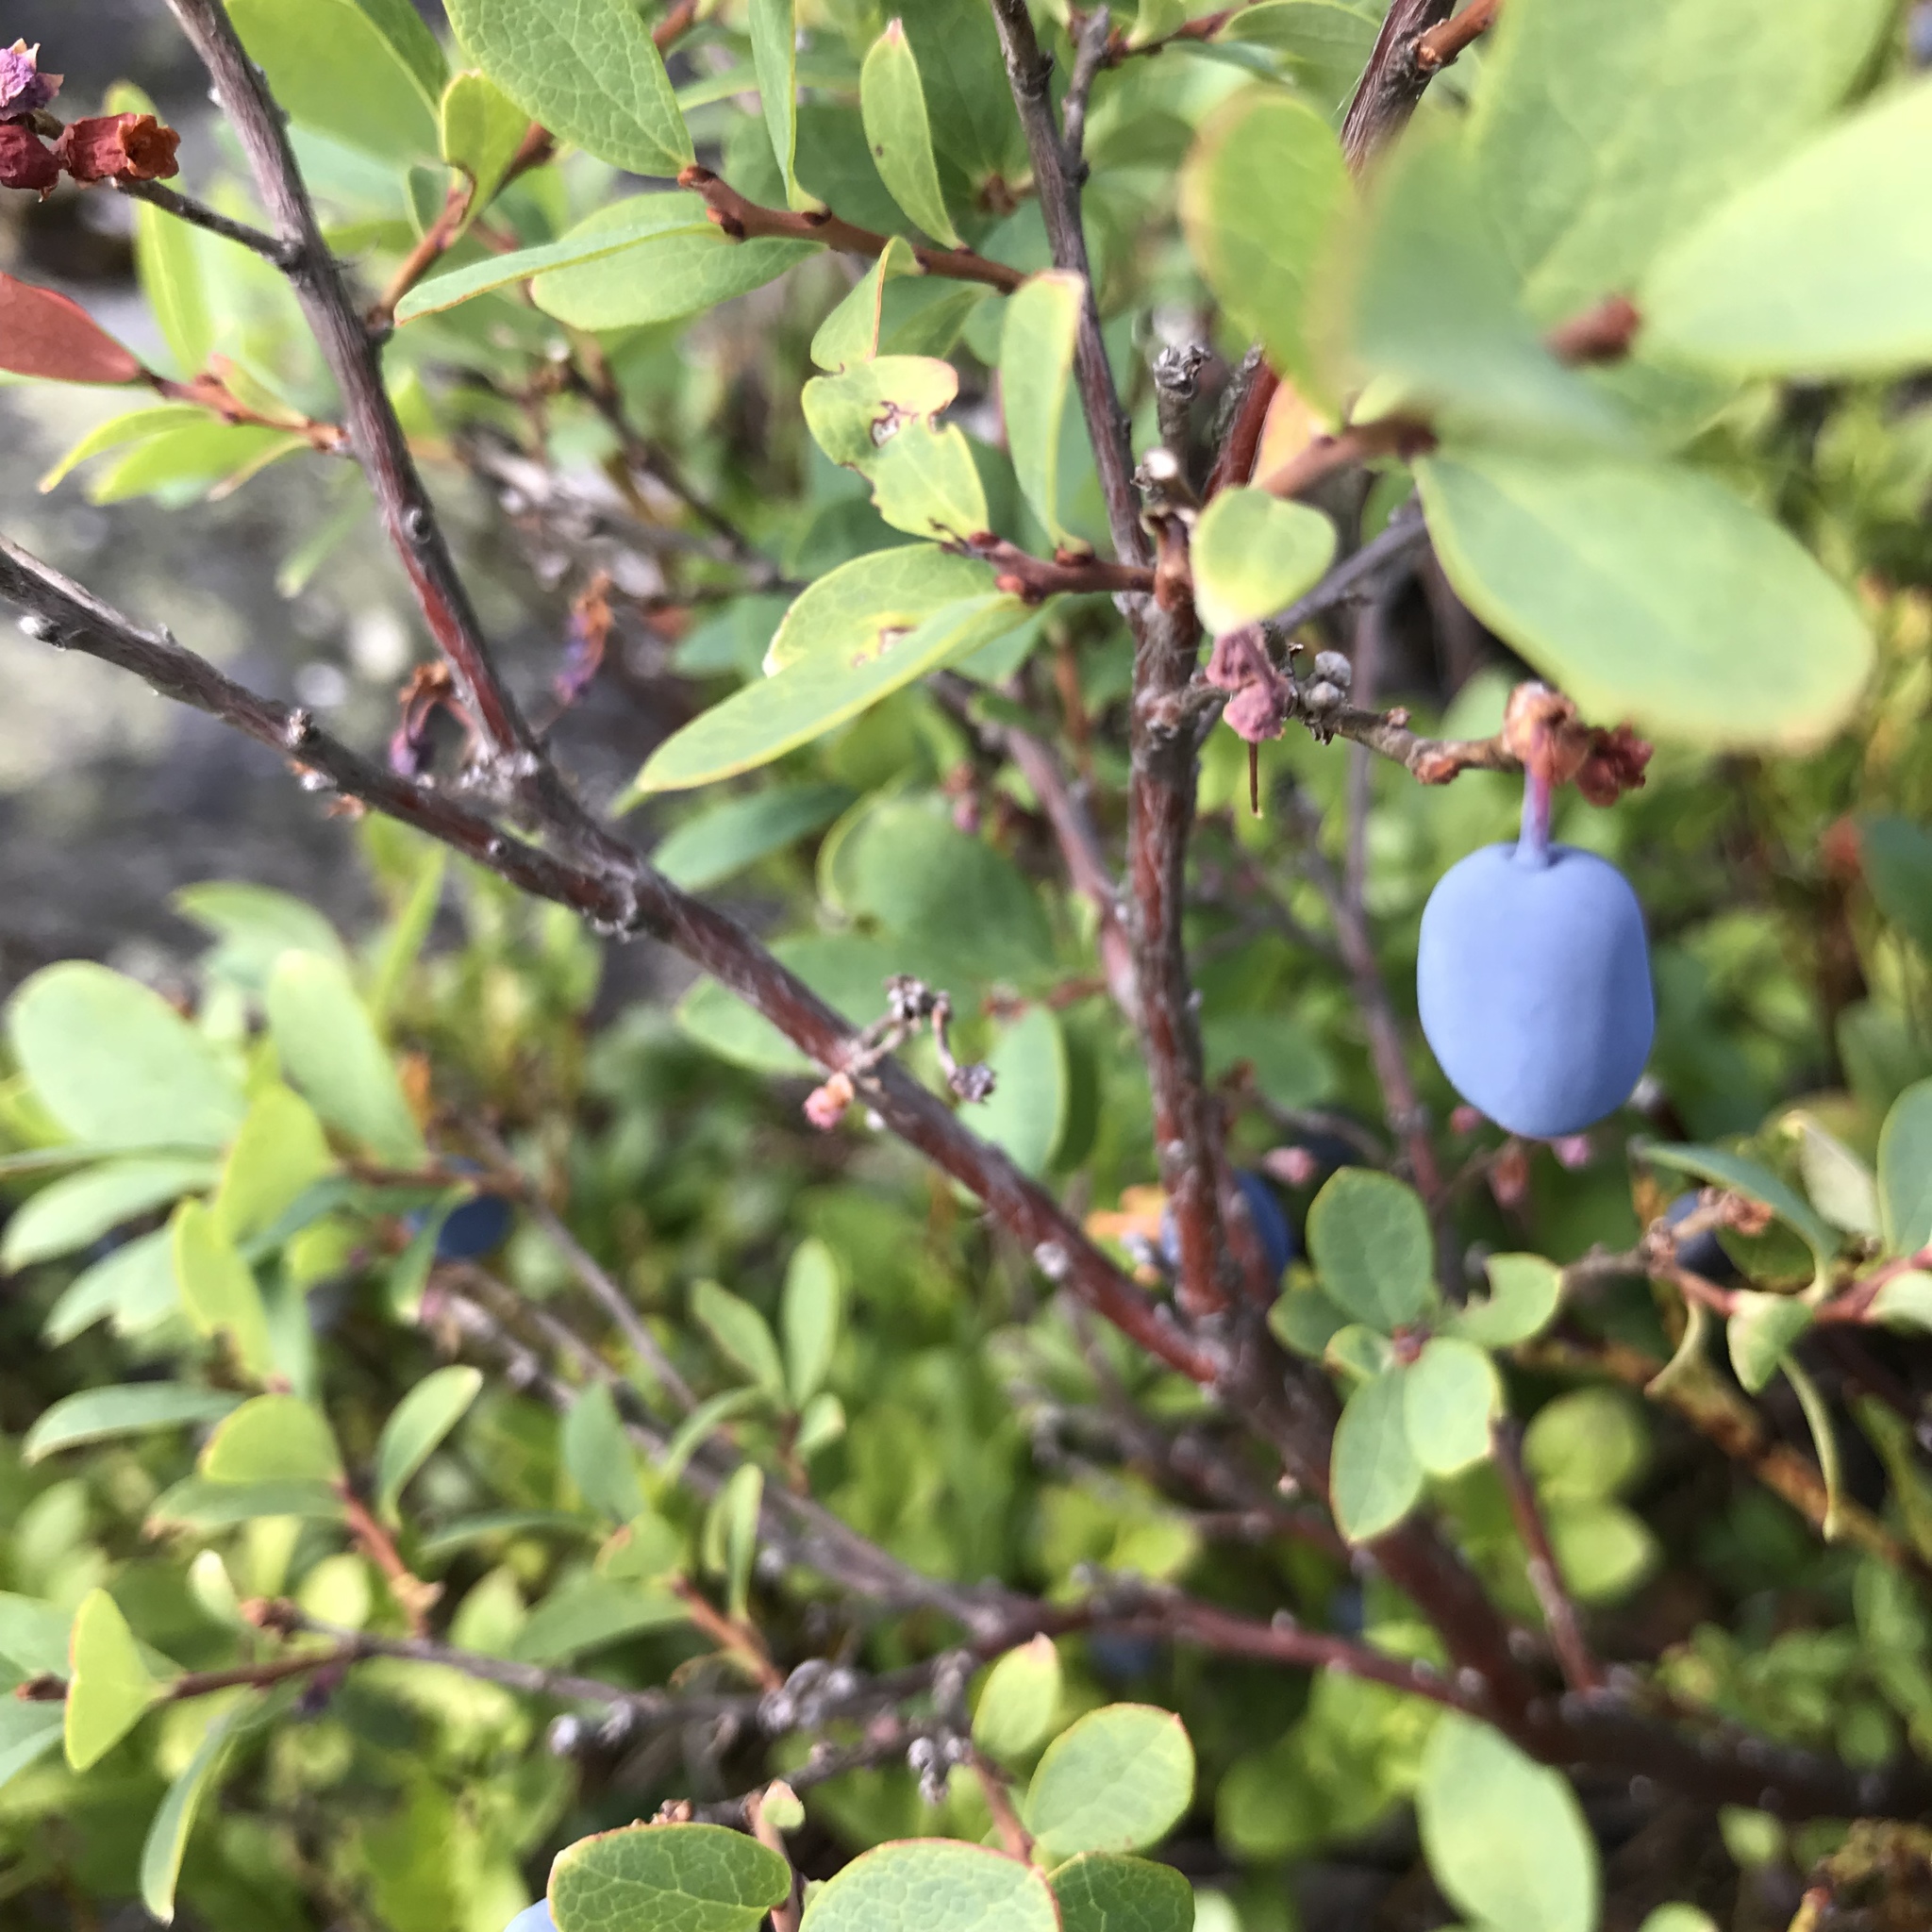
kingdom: Plantae
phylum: Tracheophyta
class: Magnoliopsida
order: Ericales
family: Ericaceae
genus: Vaccinium
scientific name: Vaccinium uliginosum
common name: Bog bilberry
